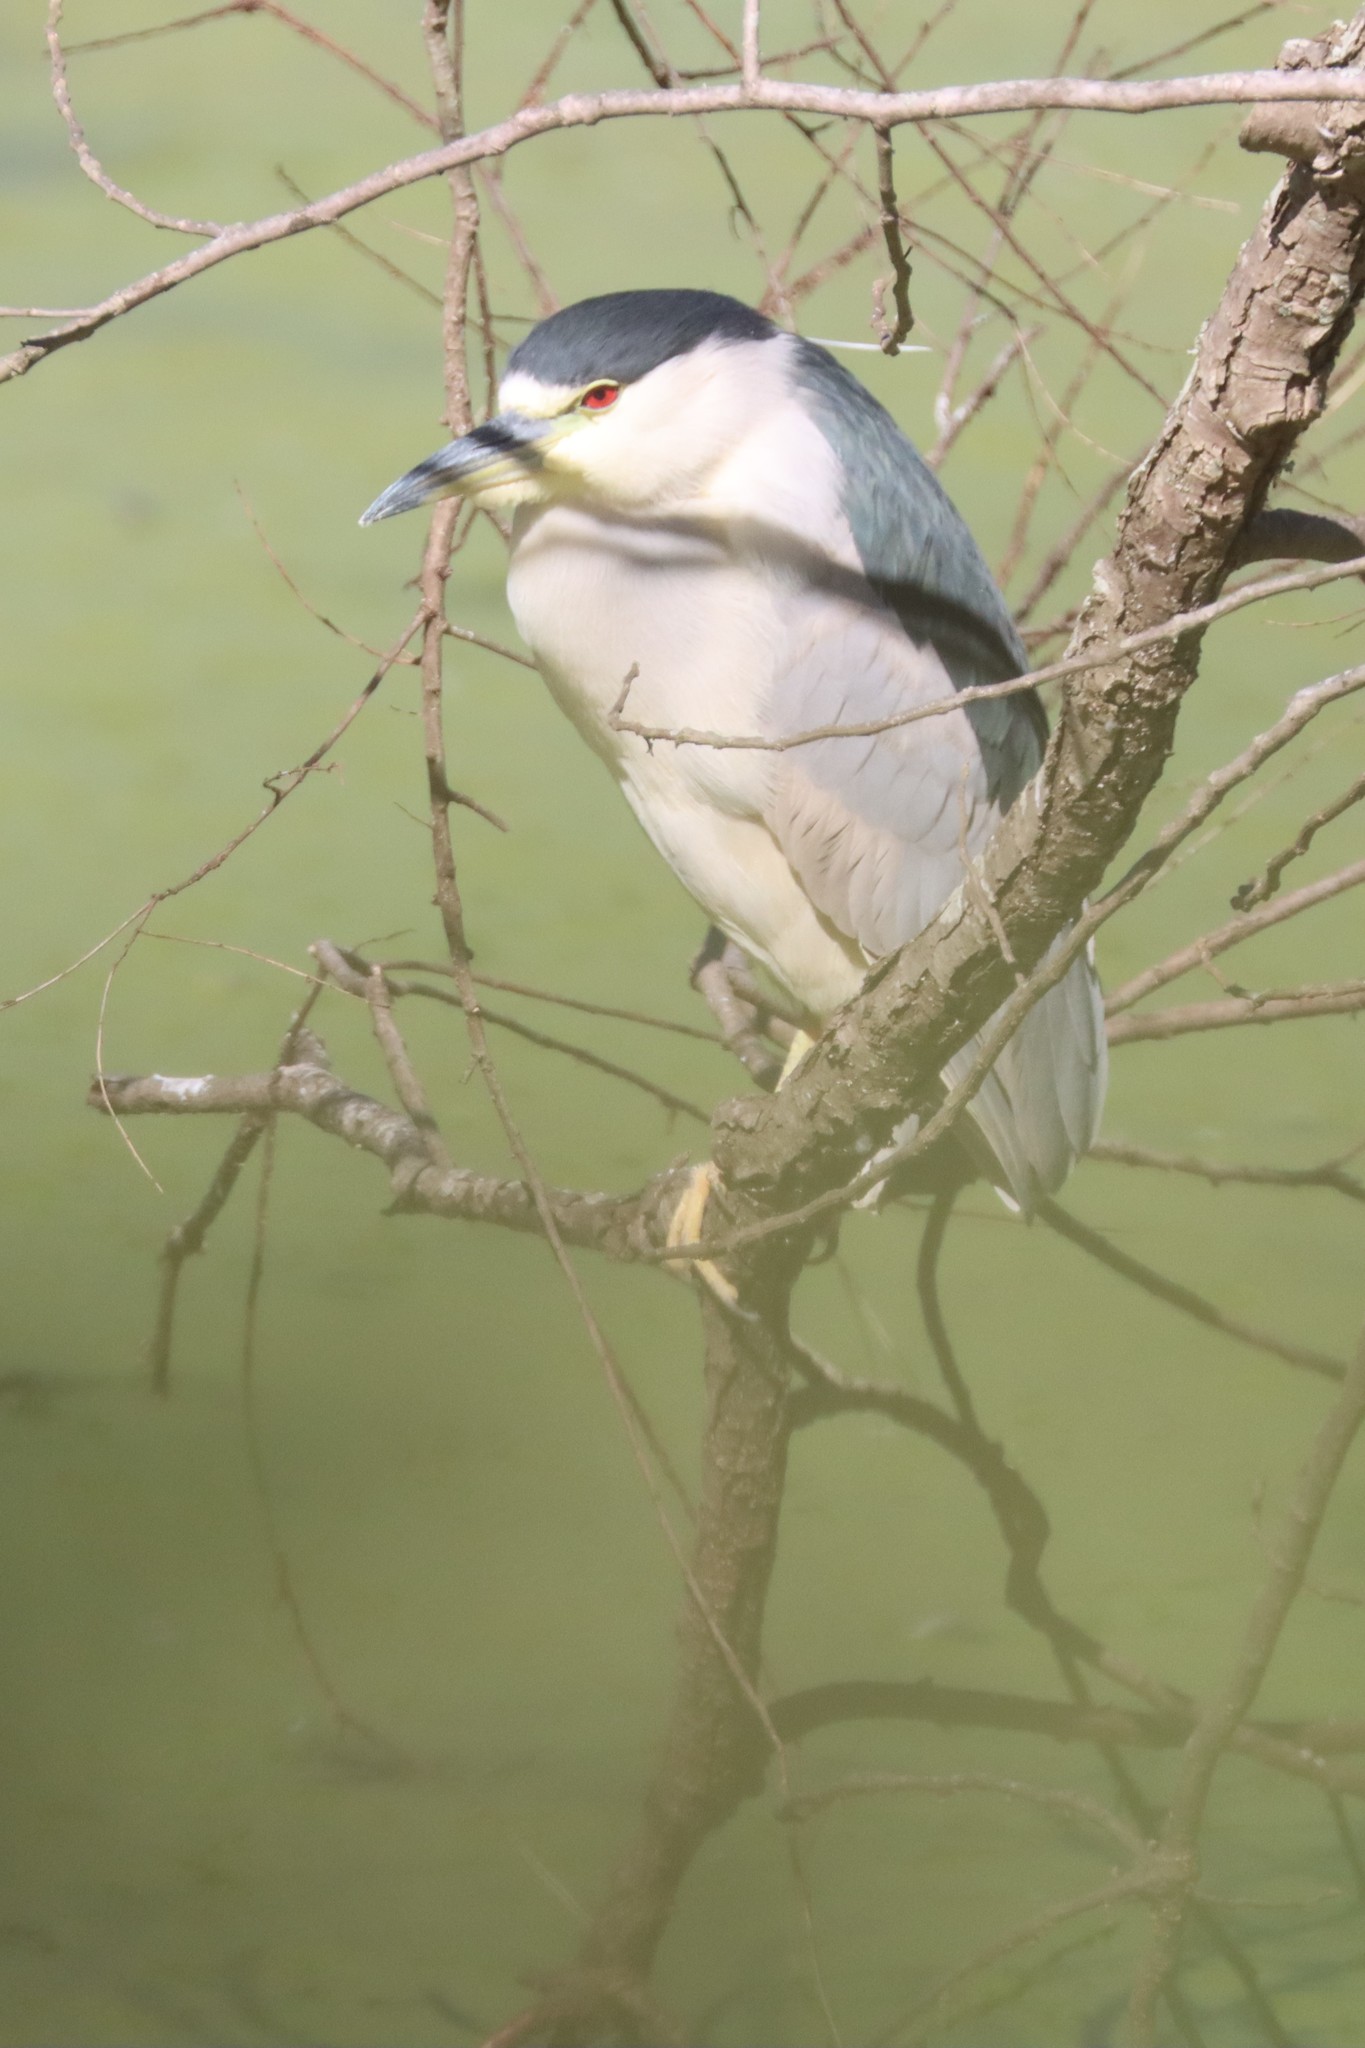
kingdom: Animalia
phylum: Chordata
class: Aves
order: Pelecaniformes
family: Ardeidae
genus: Nycticorax
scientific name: Nycticorax nycticorax
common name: Black-crowned night heron
